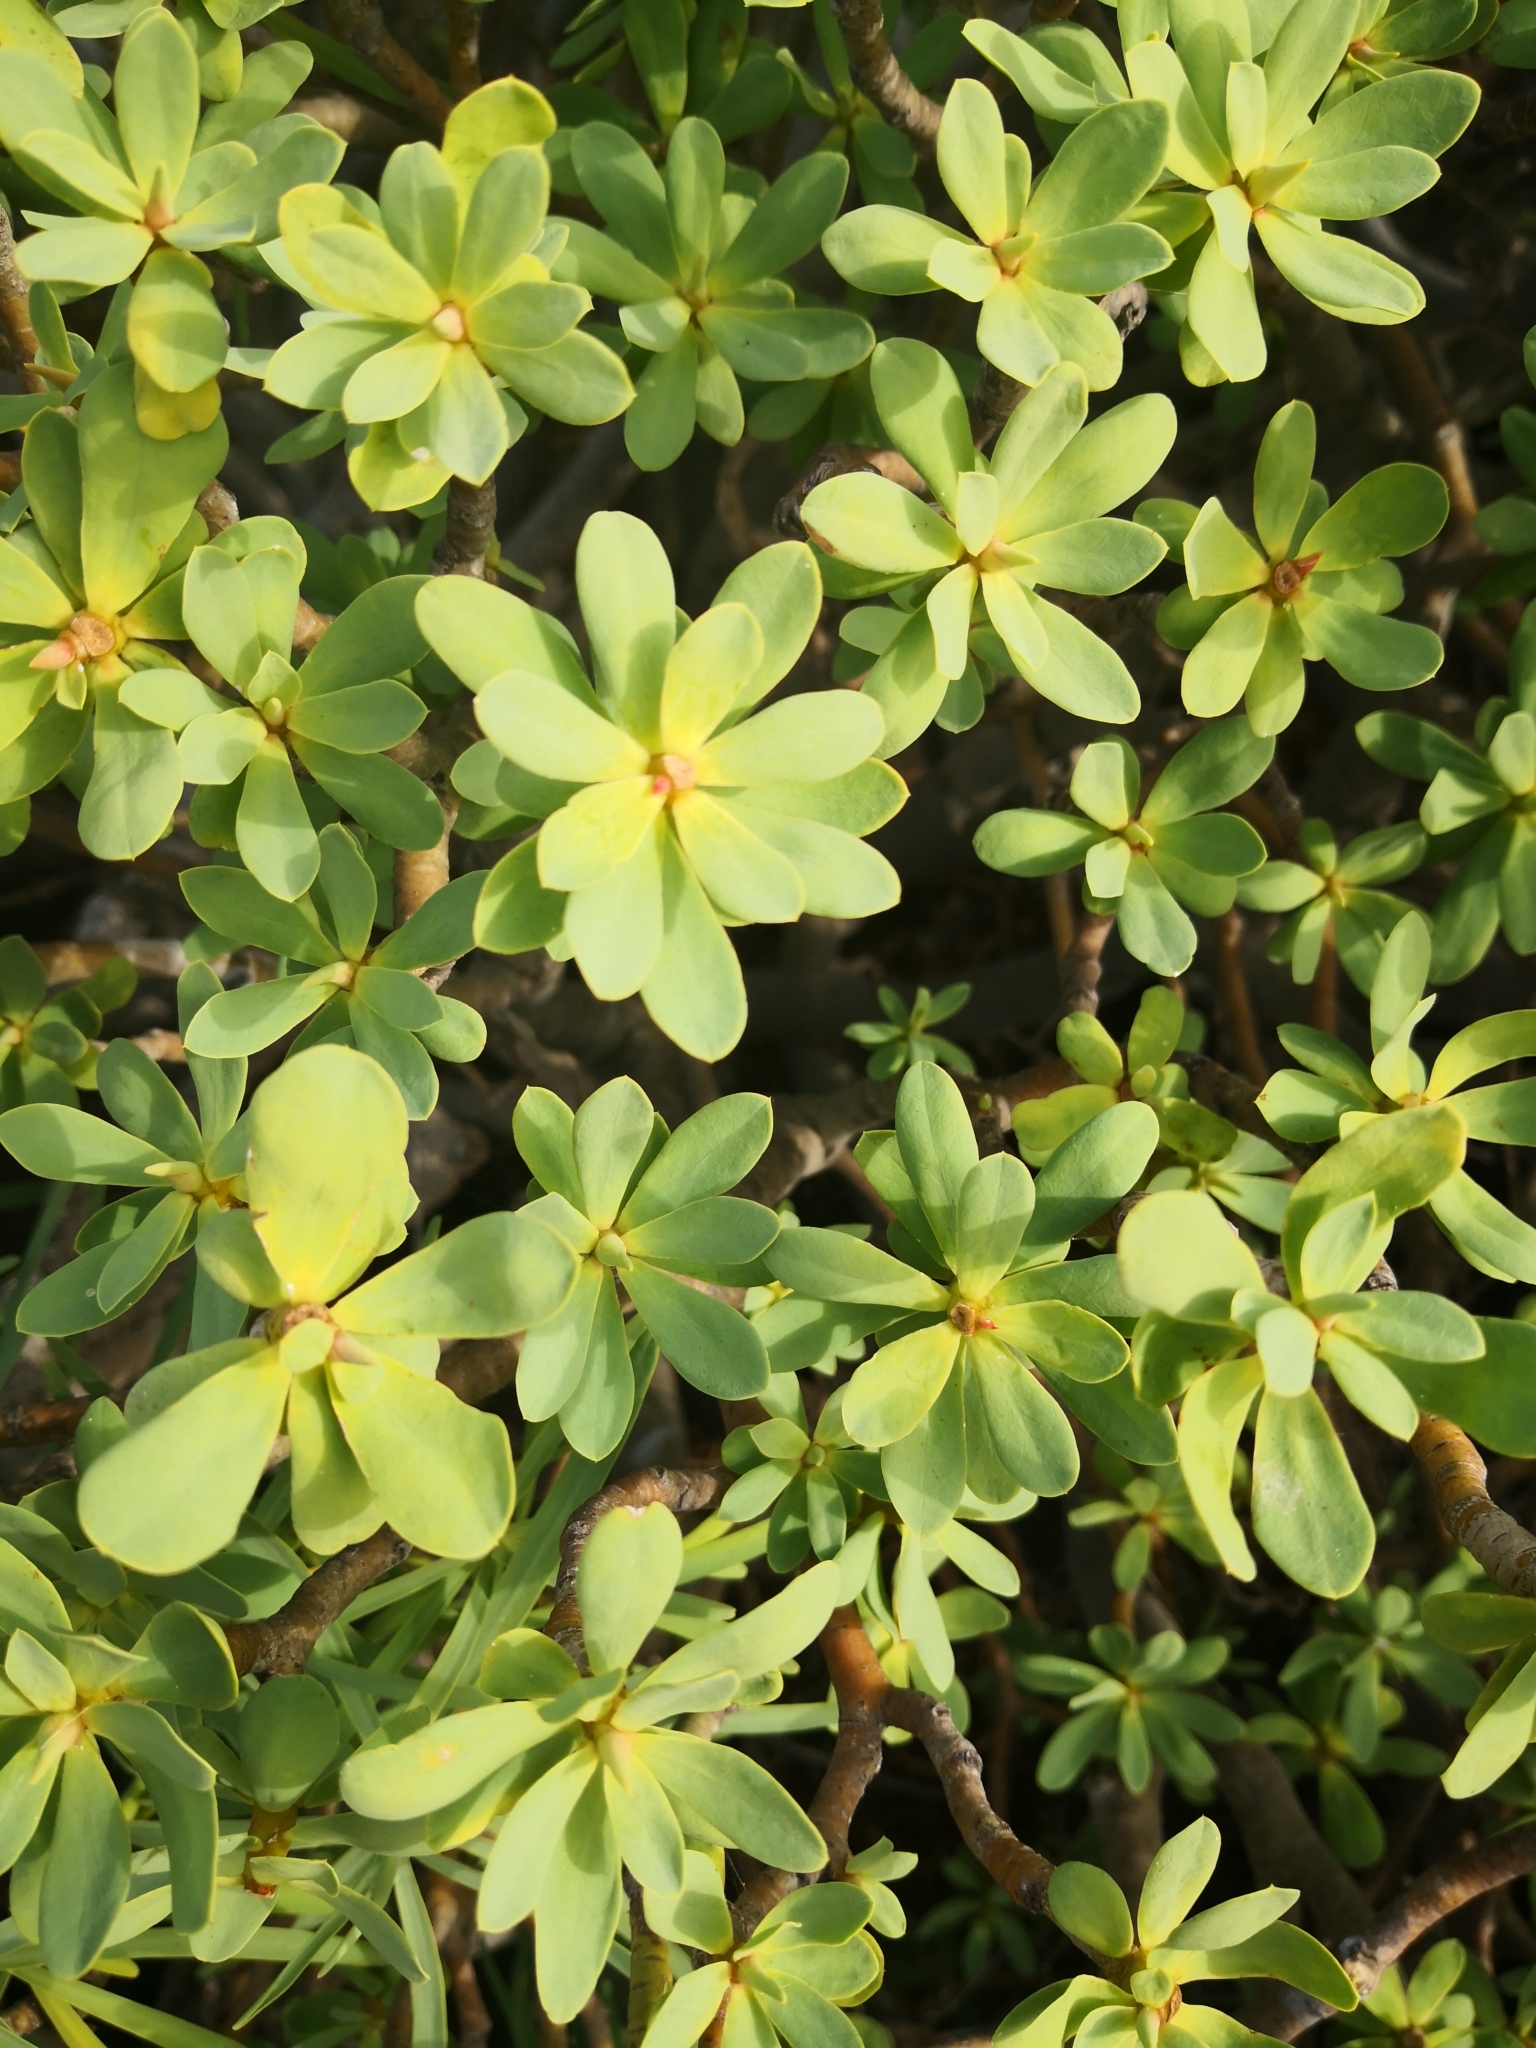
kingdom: Plantae
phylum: Tracheophyta
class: Magnoliopsida
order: Malpighiales
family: Euphorbiaceae
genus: Euphorbia
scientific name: Euphorbia balsamifera
